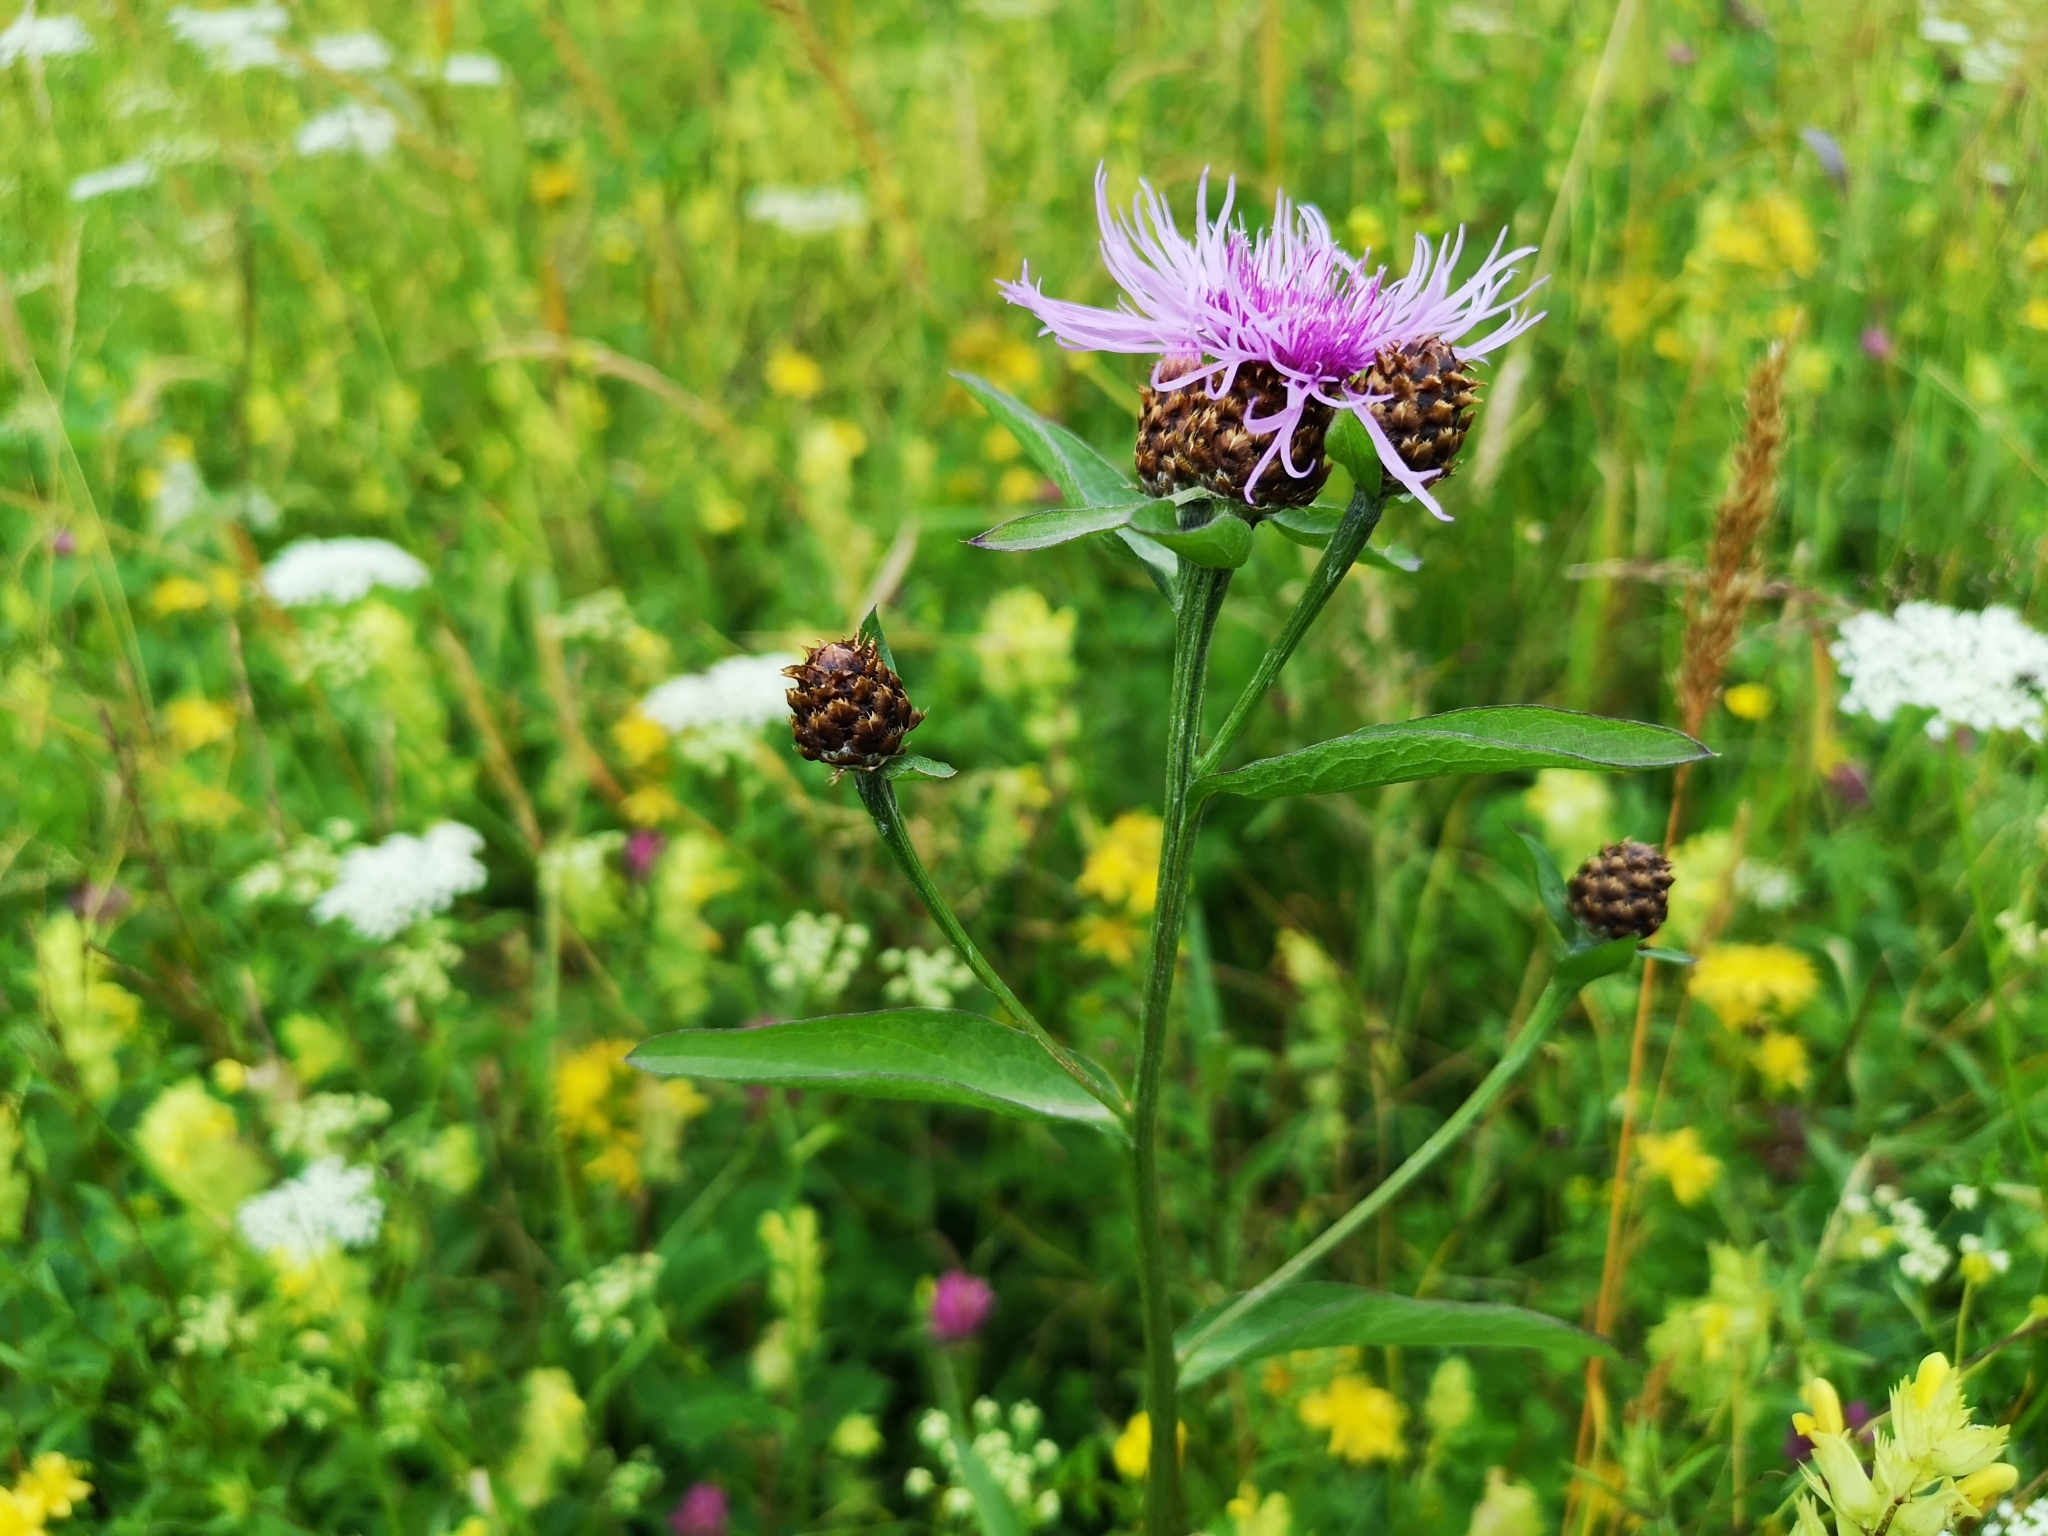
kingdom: Plantae
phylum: Tracheophyta
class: Magnoliopsida
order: Asterales
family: Asteraceae
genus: Centaurea
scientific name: Centaurea jacea
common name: Brown knapweed
